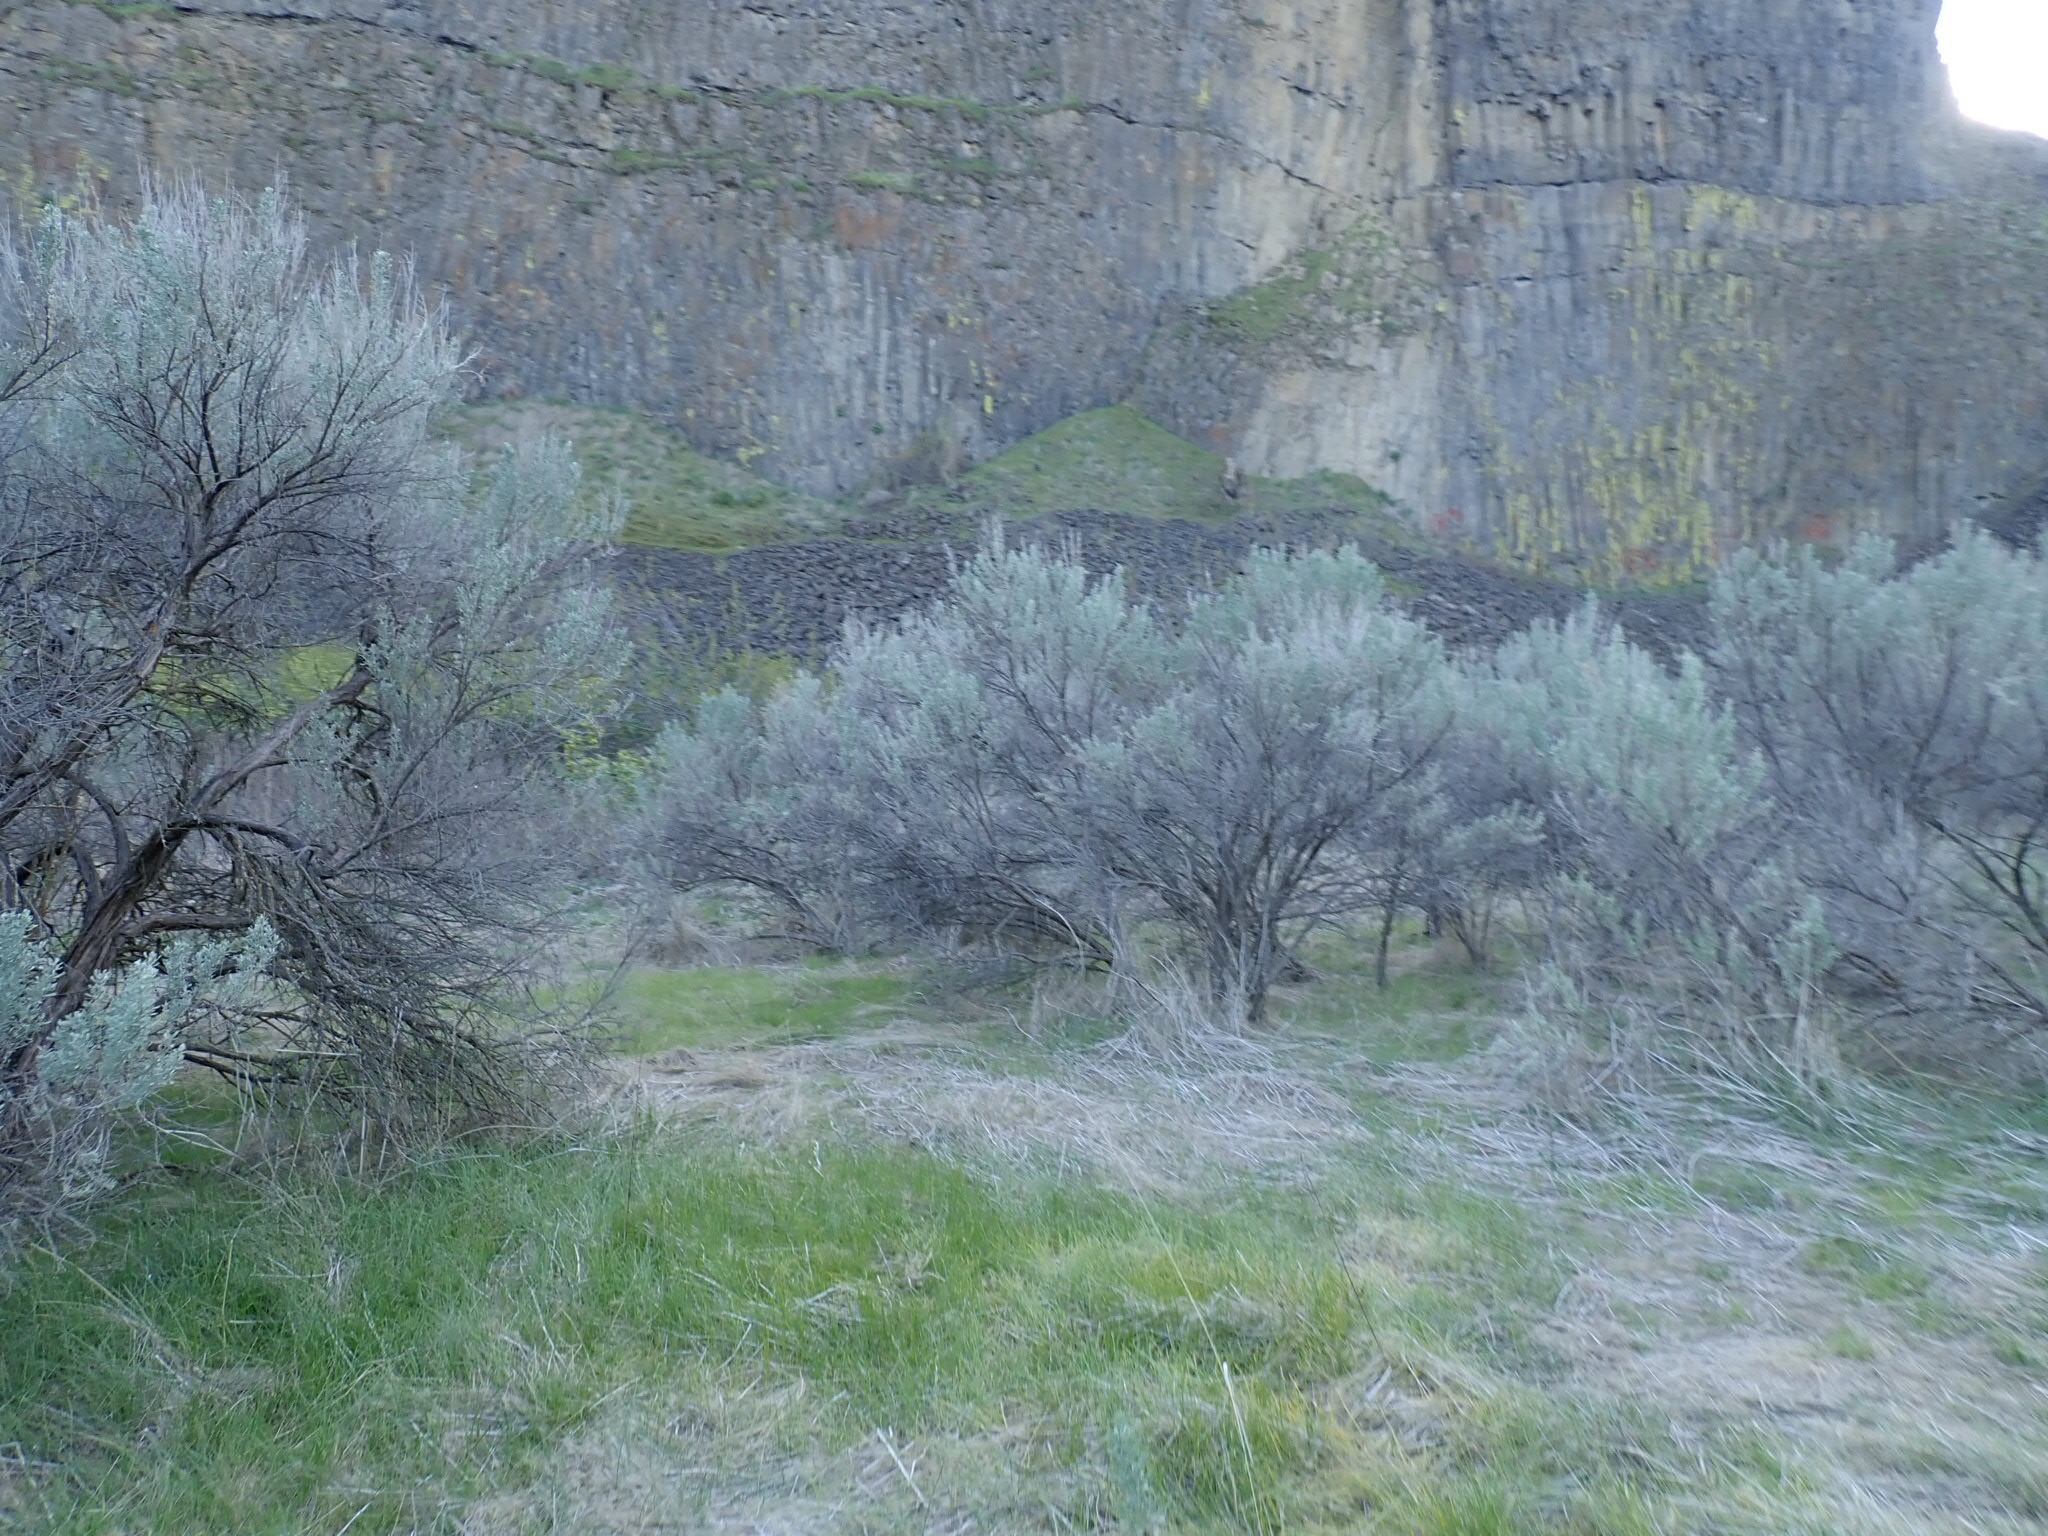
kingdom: Plantae
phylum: Tracheophyta
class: Magnoliopsida
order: Asterales
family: Asteraceae
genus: Artemisia
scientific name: Artemisia tridentata
